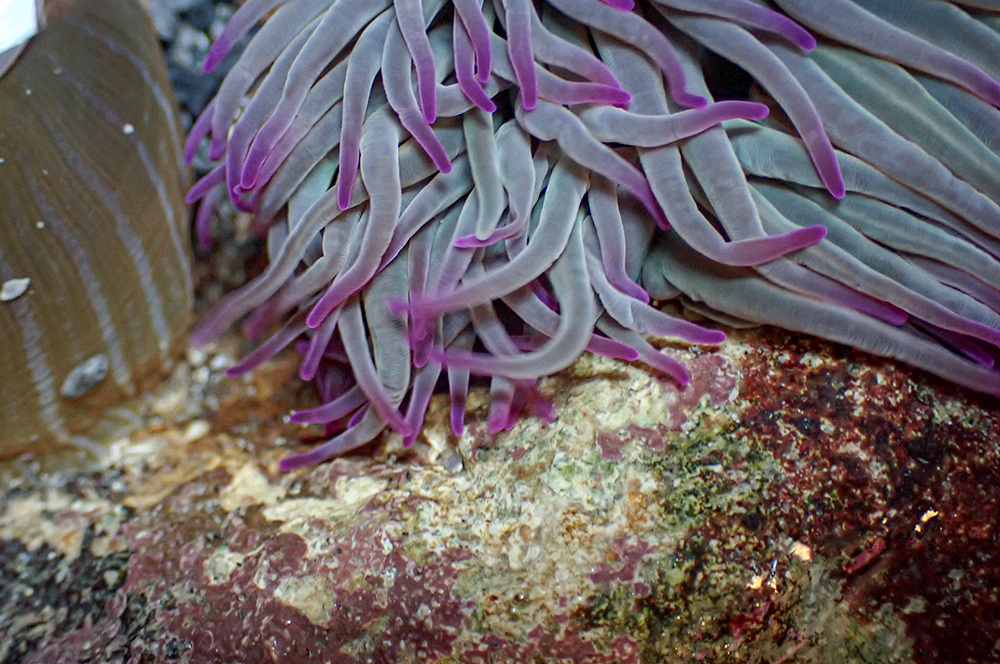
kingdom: Animalia
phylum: Cnidaria
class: Anthozoa
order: Actiniaria
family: Actiniidae
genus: Anemonia
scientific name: Anemonia viridis
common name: Snakelocks anemone
